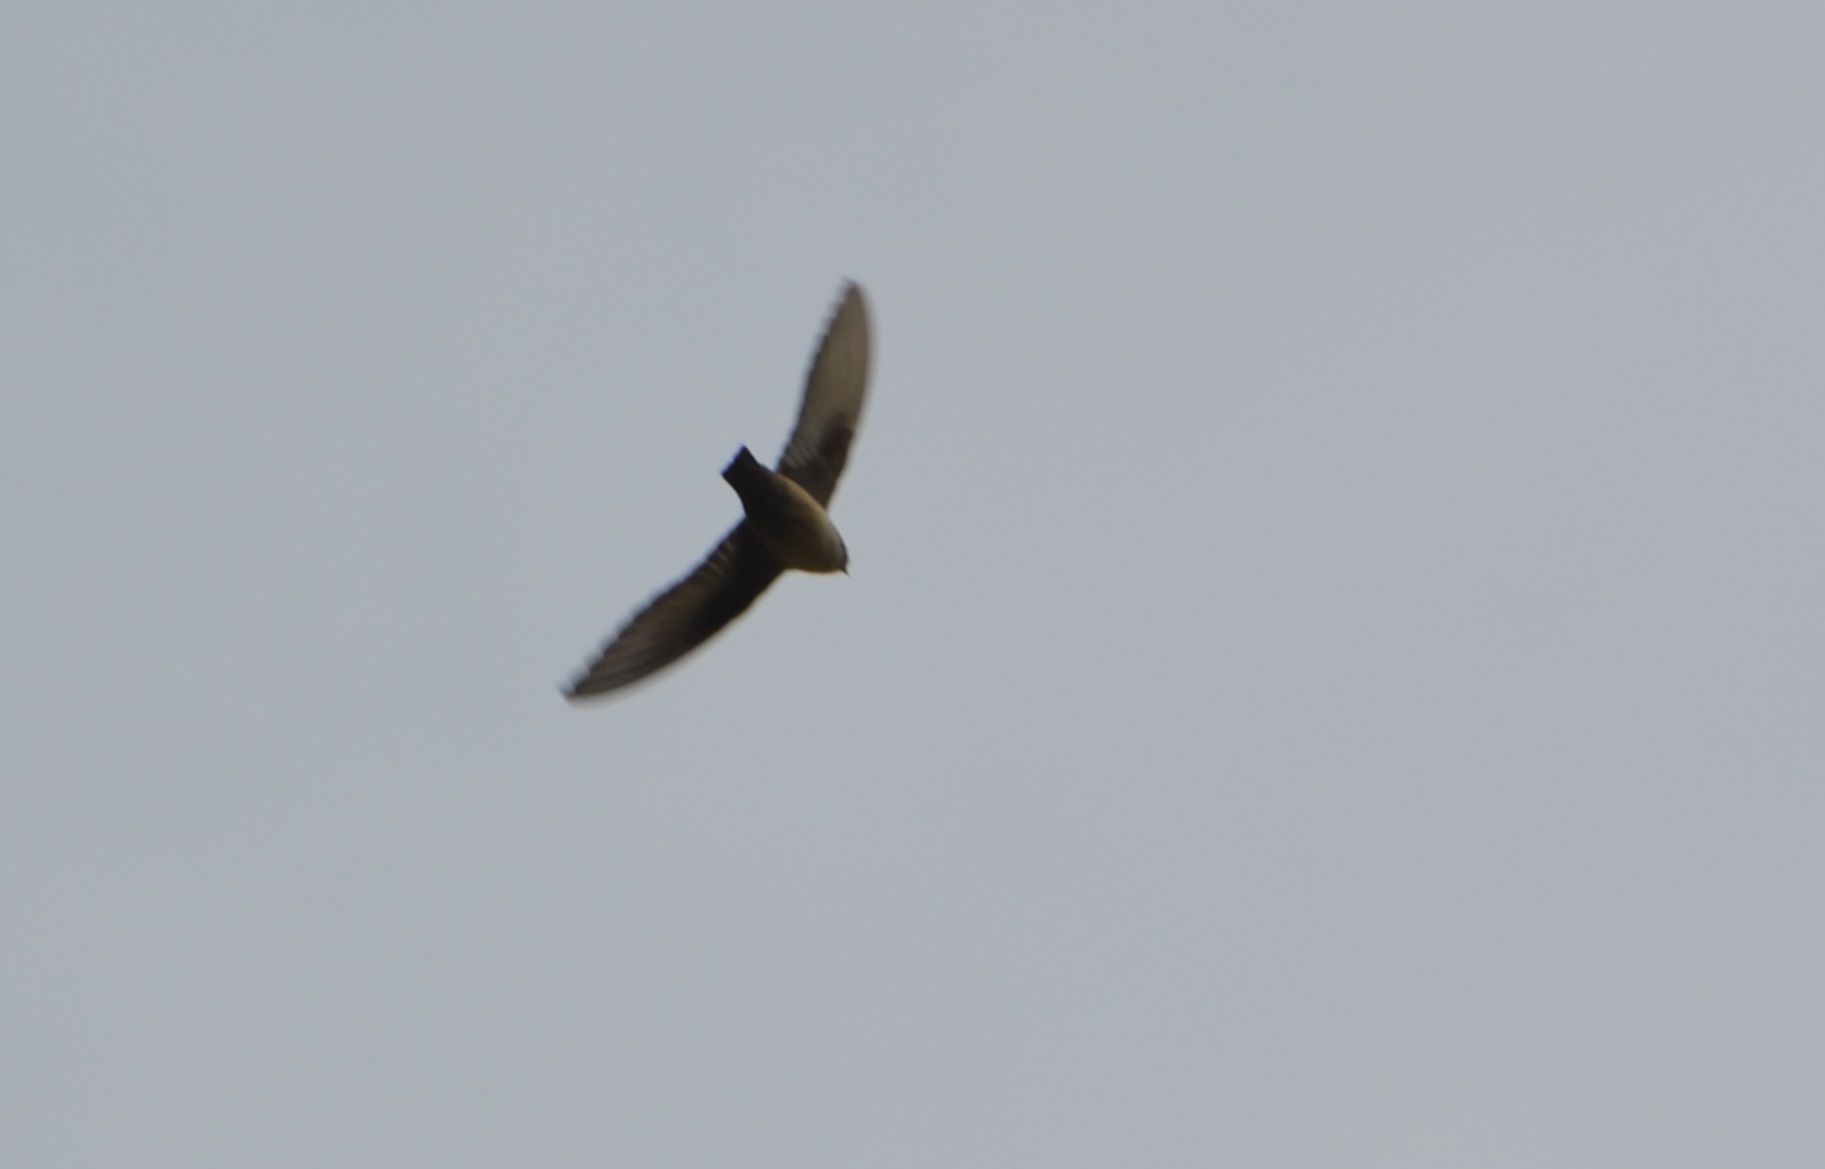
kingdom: Animalia
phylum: Chordata
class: Aves
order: Passeriformes
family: Hirundinidae
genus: Ptyonoprogne
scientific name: Ptyonoprogne rupestris
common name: Eurasian crag martin
